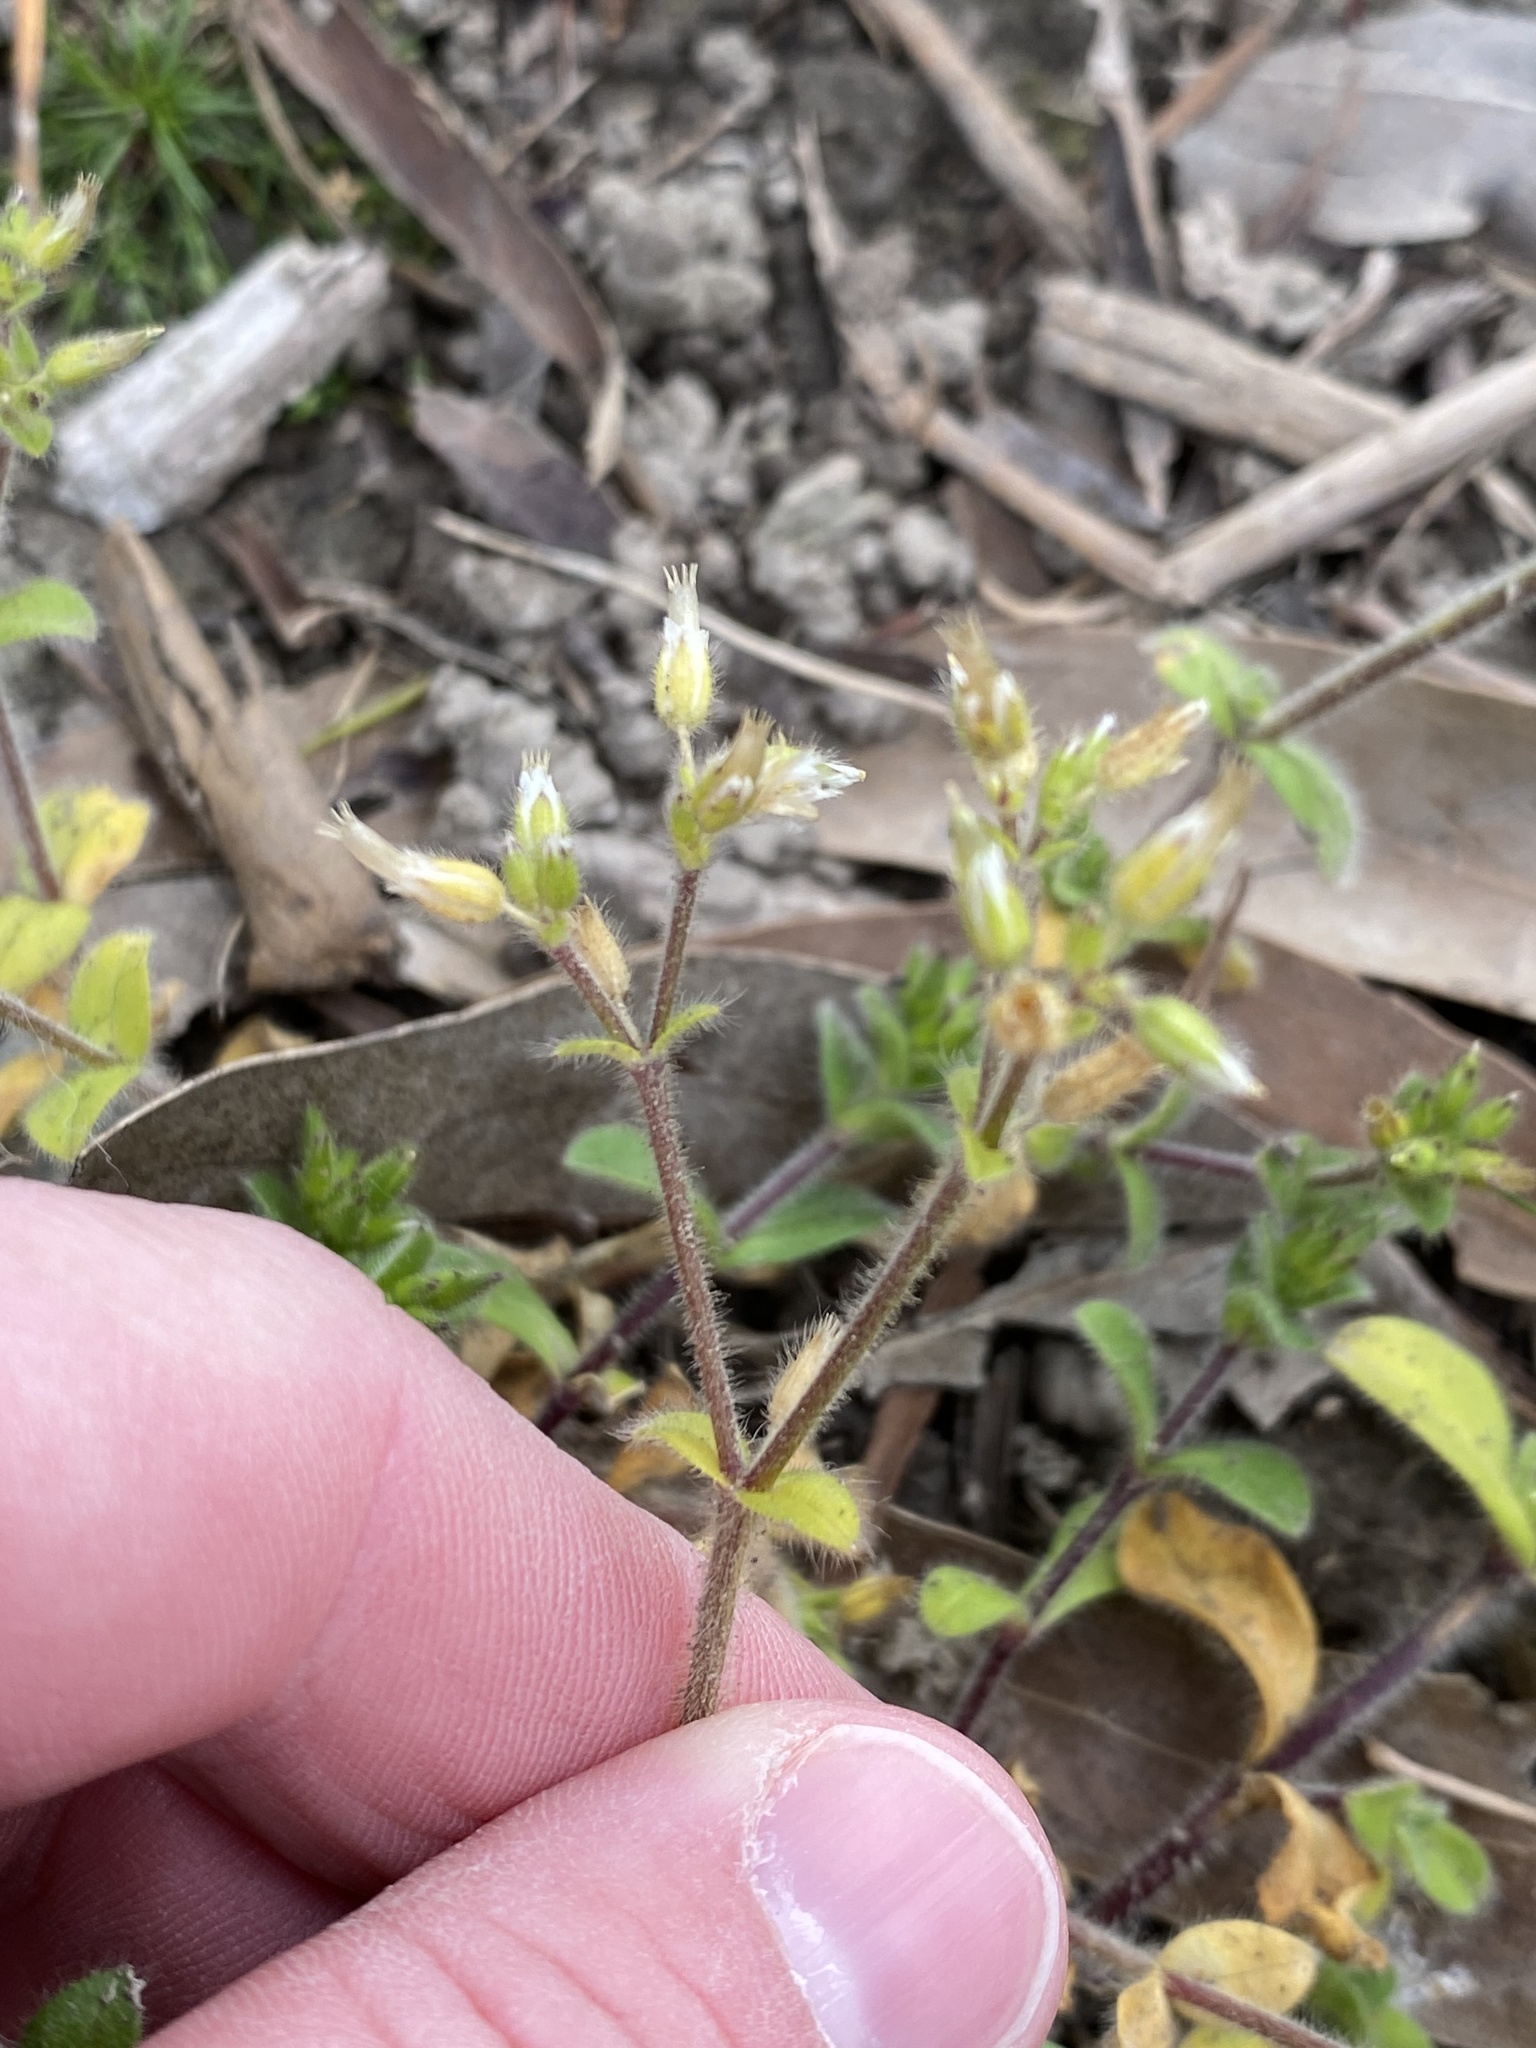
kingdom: Plantae
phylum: Tracheophyta
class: Magnoliopsida
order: Caryophyllales
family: Caryophyllaceae
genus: Cerastium
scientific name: Cerastium glomeratum
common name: Sticky chickweed
